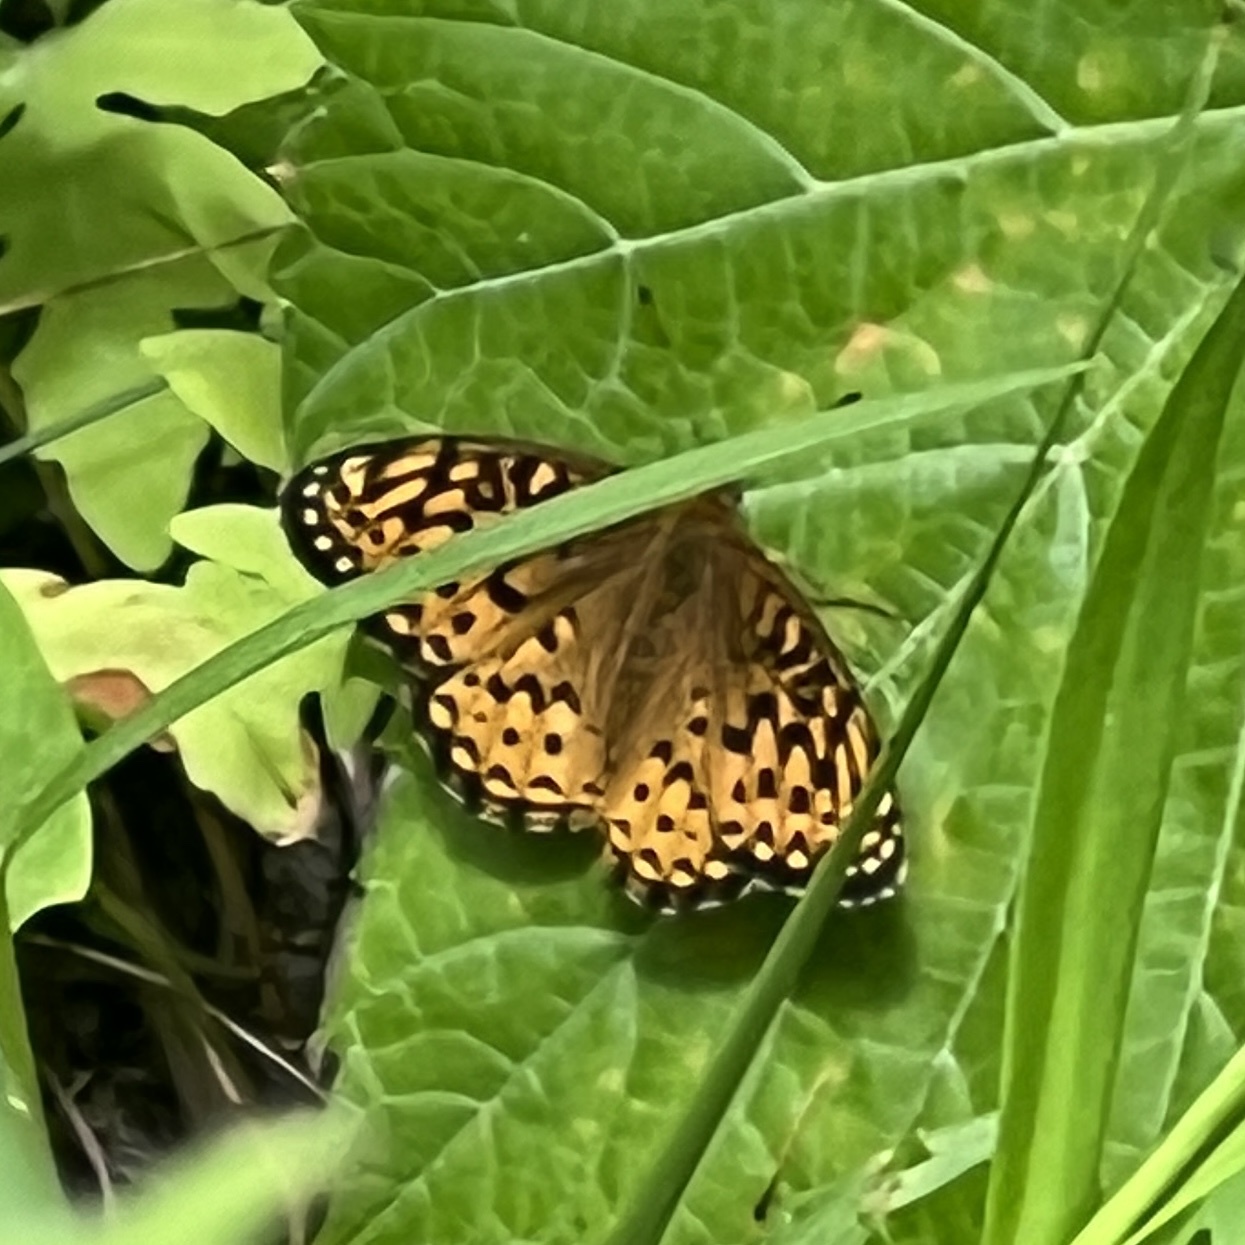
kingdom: Animalia
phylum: Arthropoda
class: Insecta
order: Lepidoptera
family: Nymphalidae
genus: Speyeria
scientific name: Speyeria atlantis
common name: Atlantis fritillary
